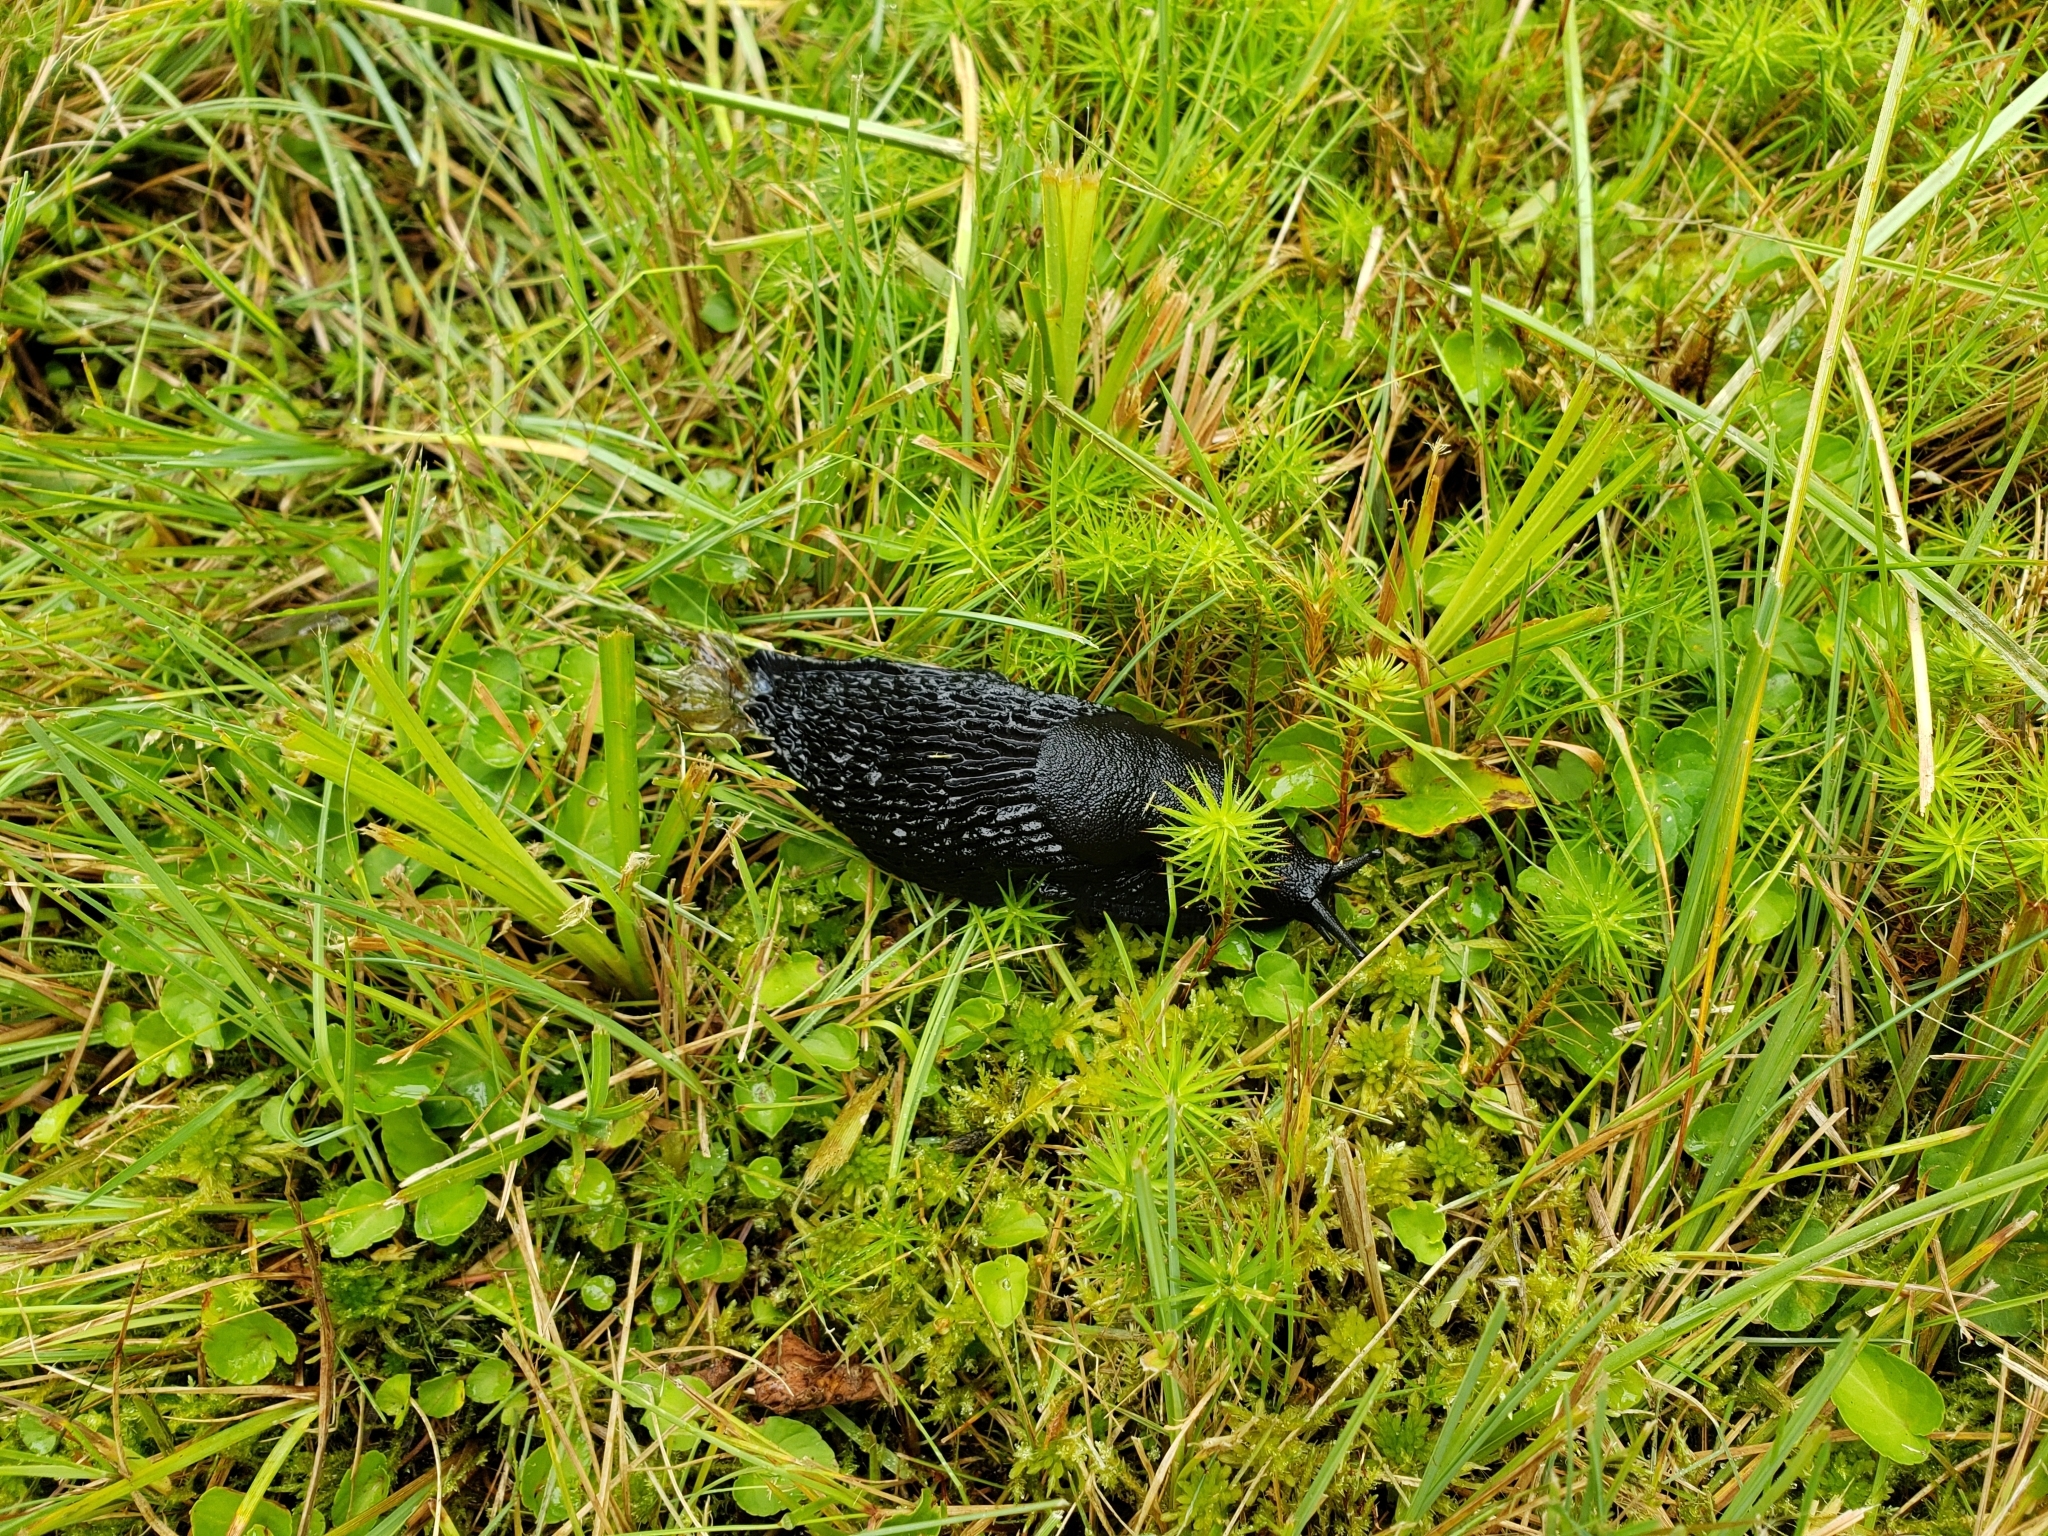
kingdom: Animalia
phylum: Mollusca
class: Gastropoda
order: Stylommatophora
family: Arionidae
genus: Arion
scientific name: Arion ater
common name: Black arion
